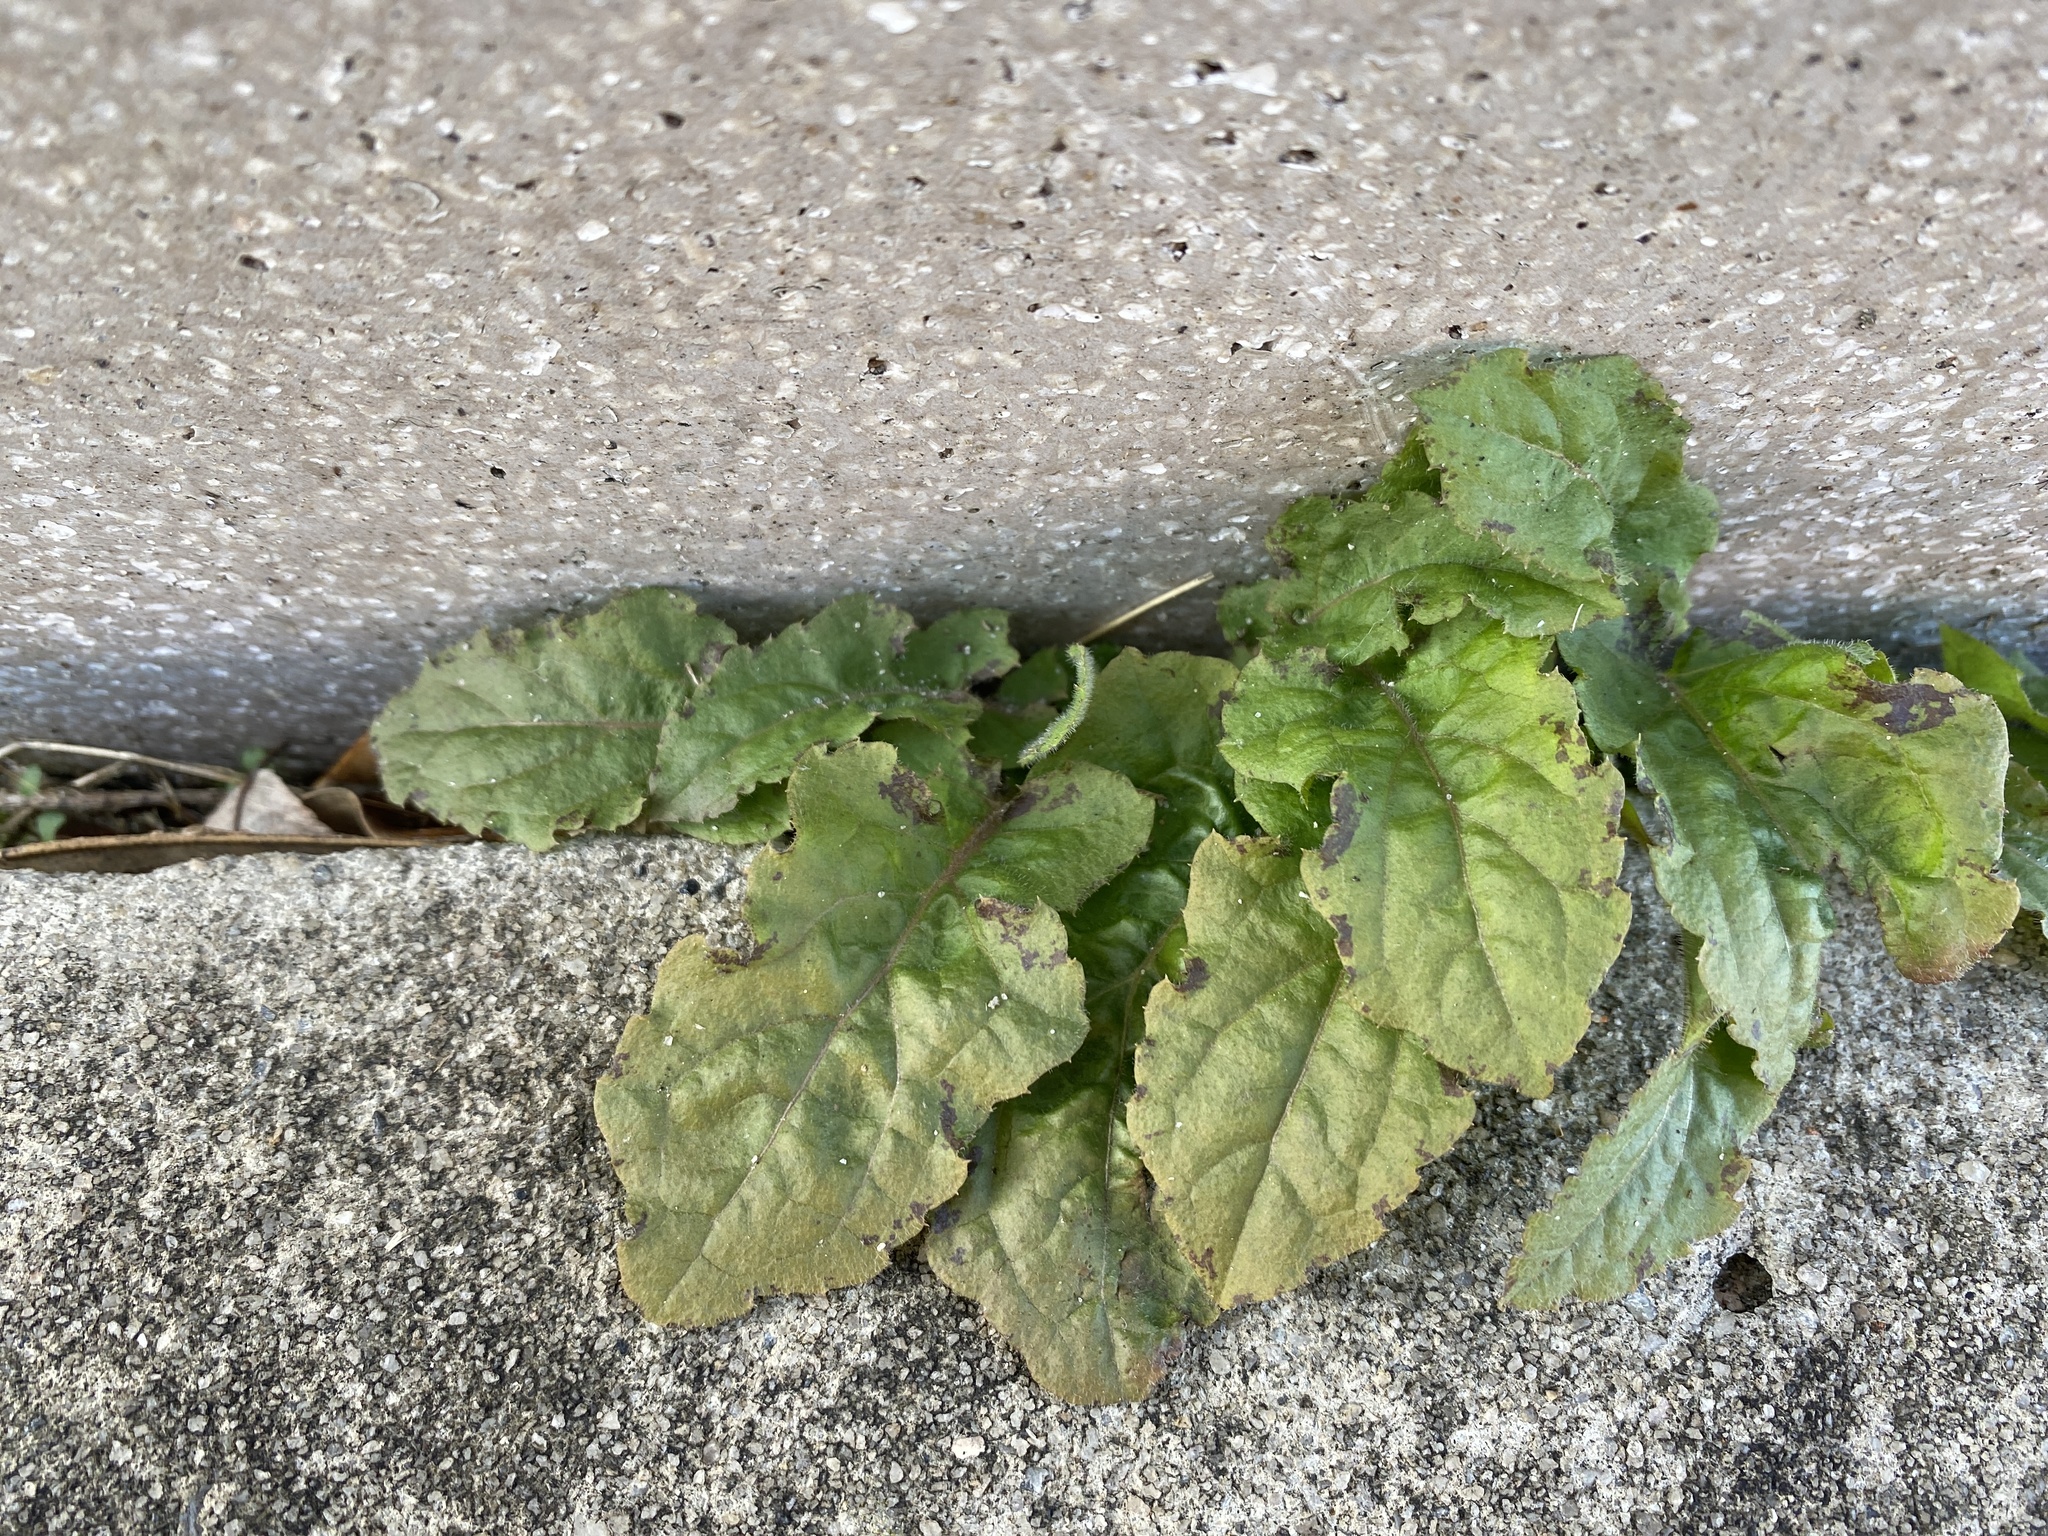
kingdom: Plantae
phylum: Tracheophyta
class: Magnoliopsida
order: Asterales
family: Asteraceae
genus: Youngia
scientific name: Youngia japonica
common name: Oriental false hawksbeard
